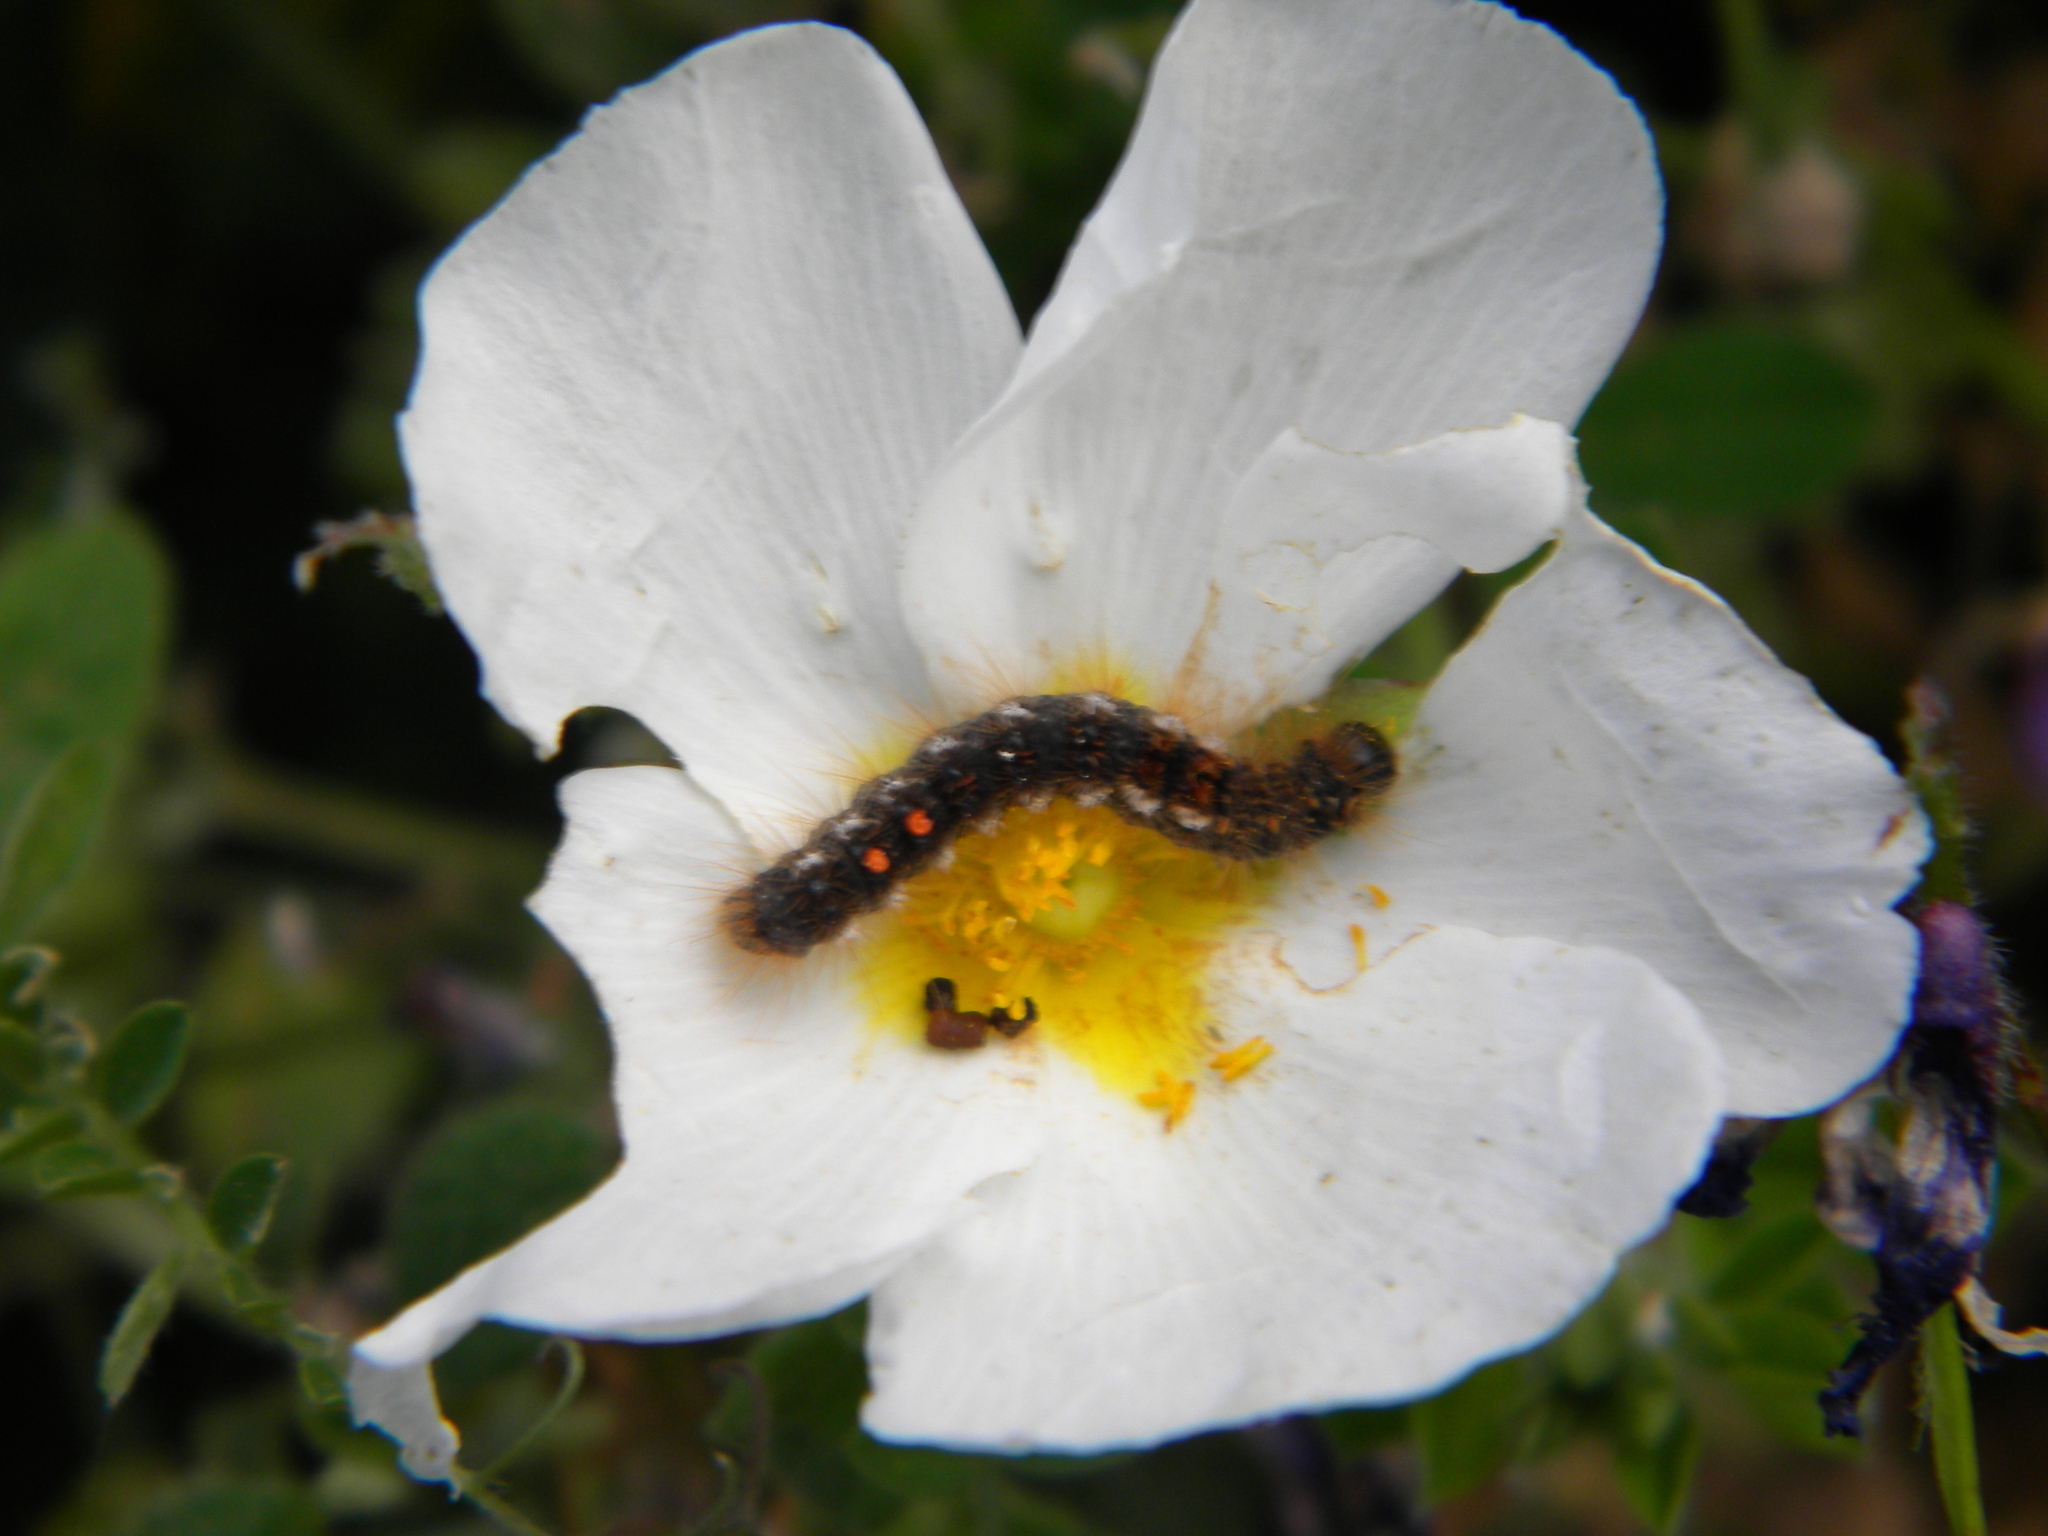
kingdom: Animalia
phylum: Arthropoda
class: Insecta
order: Lepidoptera
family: Erebidae
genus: Euproctis
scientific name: Euproctis chrysorrhoea
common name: Brown-tail
